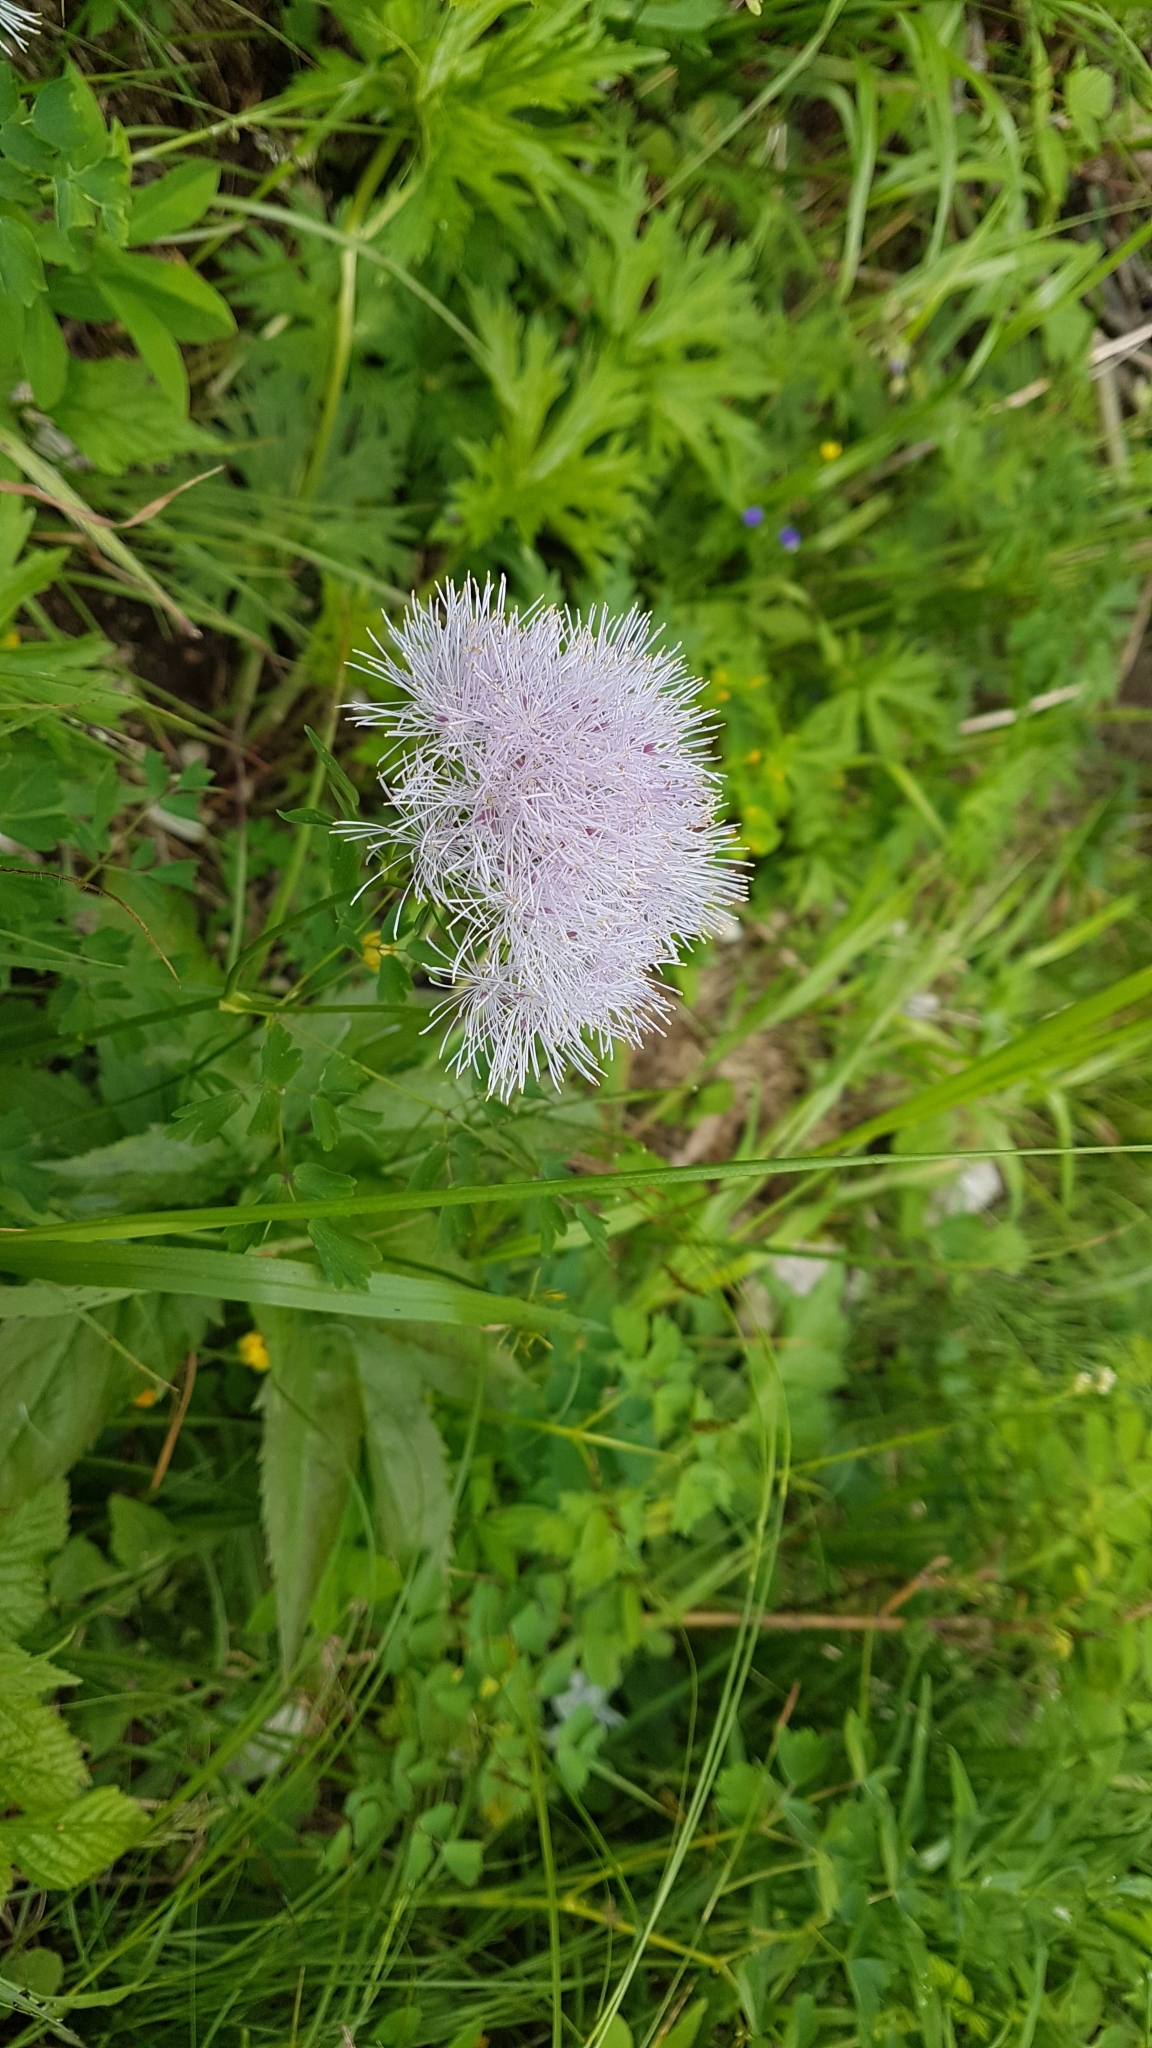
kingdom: Plantae
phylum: Tracheophyta
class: Magnoliopsida
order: Ranunculales
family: Ranunculaceae
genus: Thalictrum
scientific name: Thalictrum aquilegiifolium
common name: French meadow-rue
